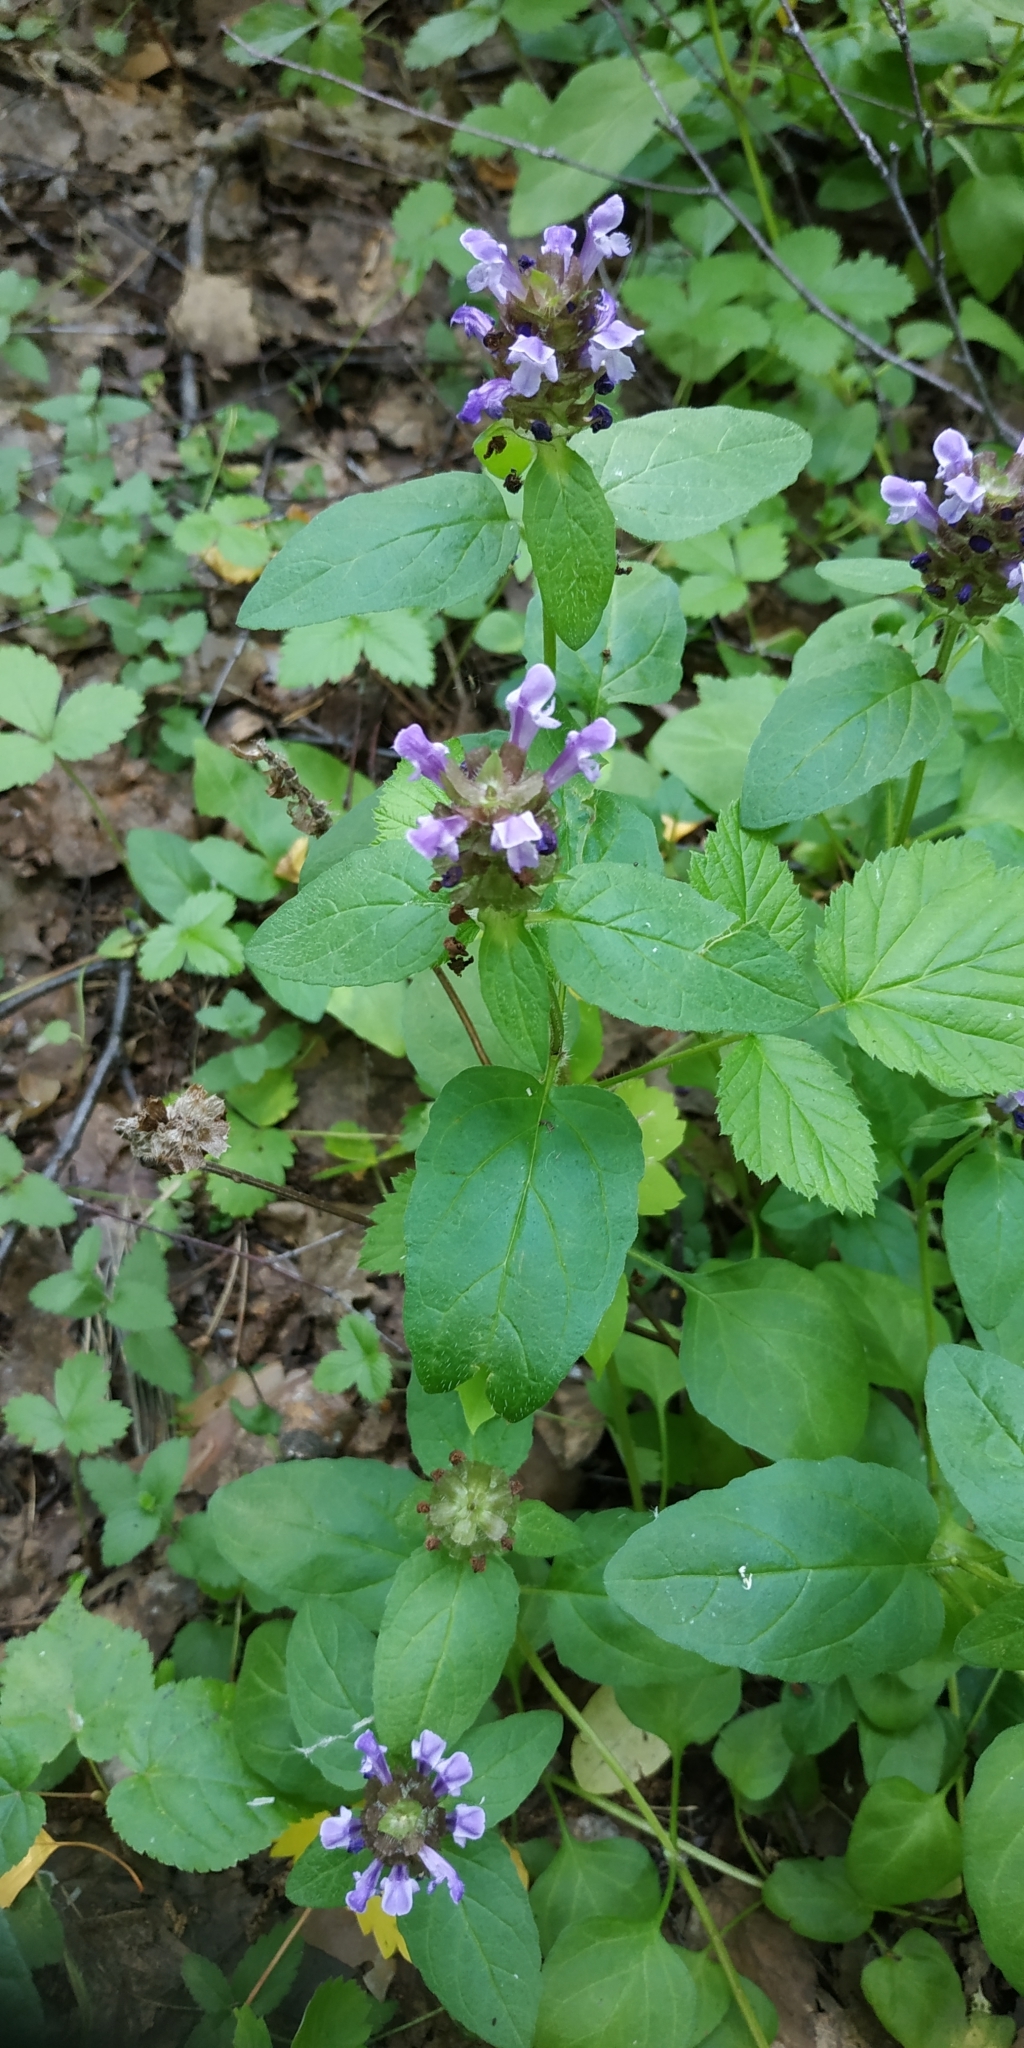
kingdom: Plantae
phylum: Tracheophyta
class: Magnoliopsida
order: Lamiales
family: Lamiaceae
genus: Prunella
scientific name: Prunella vulgaris
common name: Heal-all
